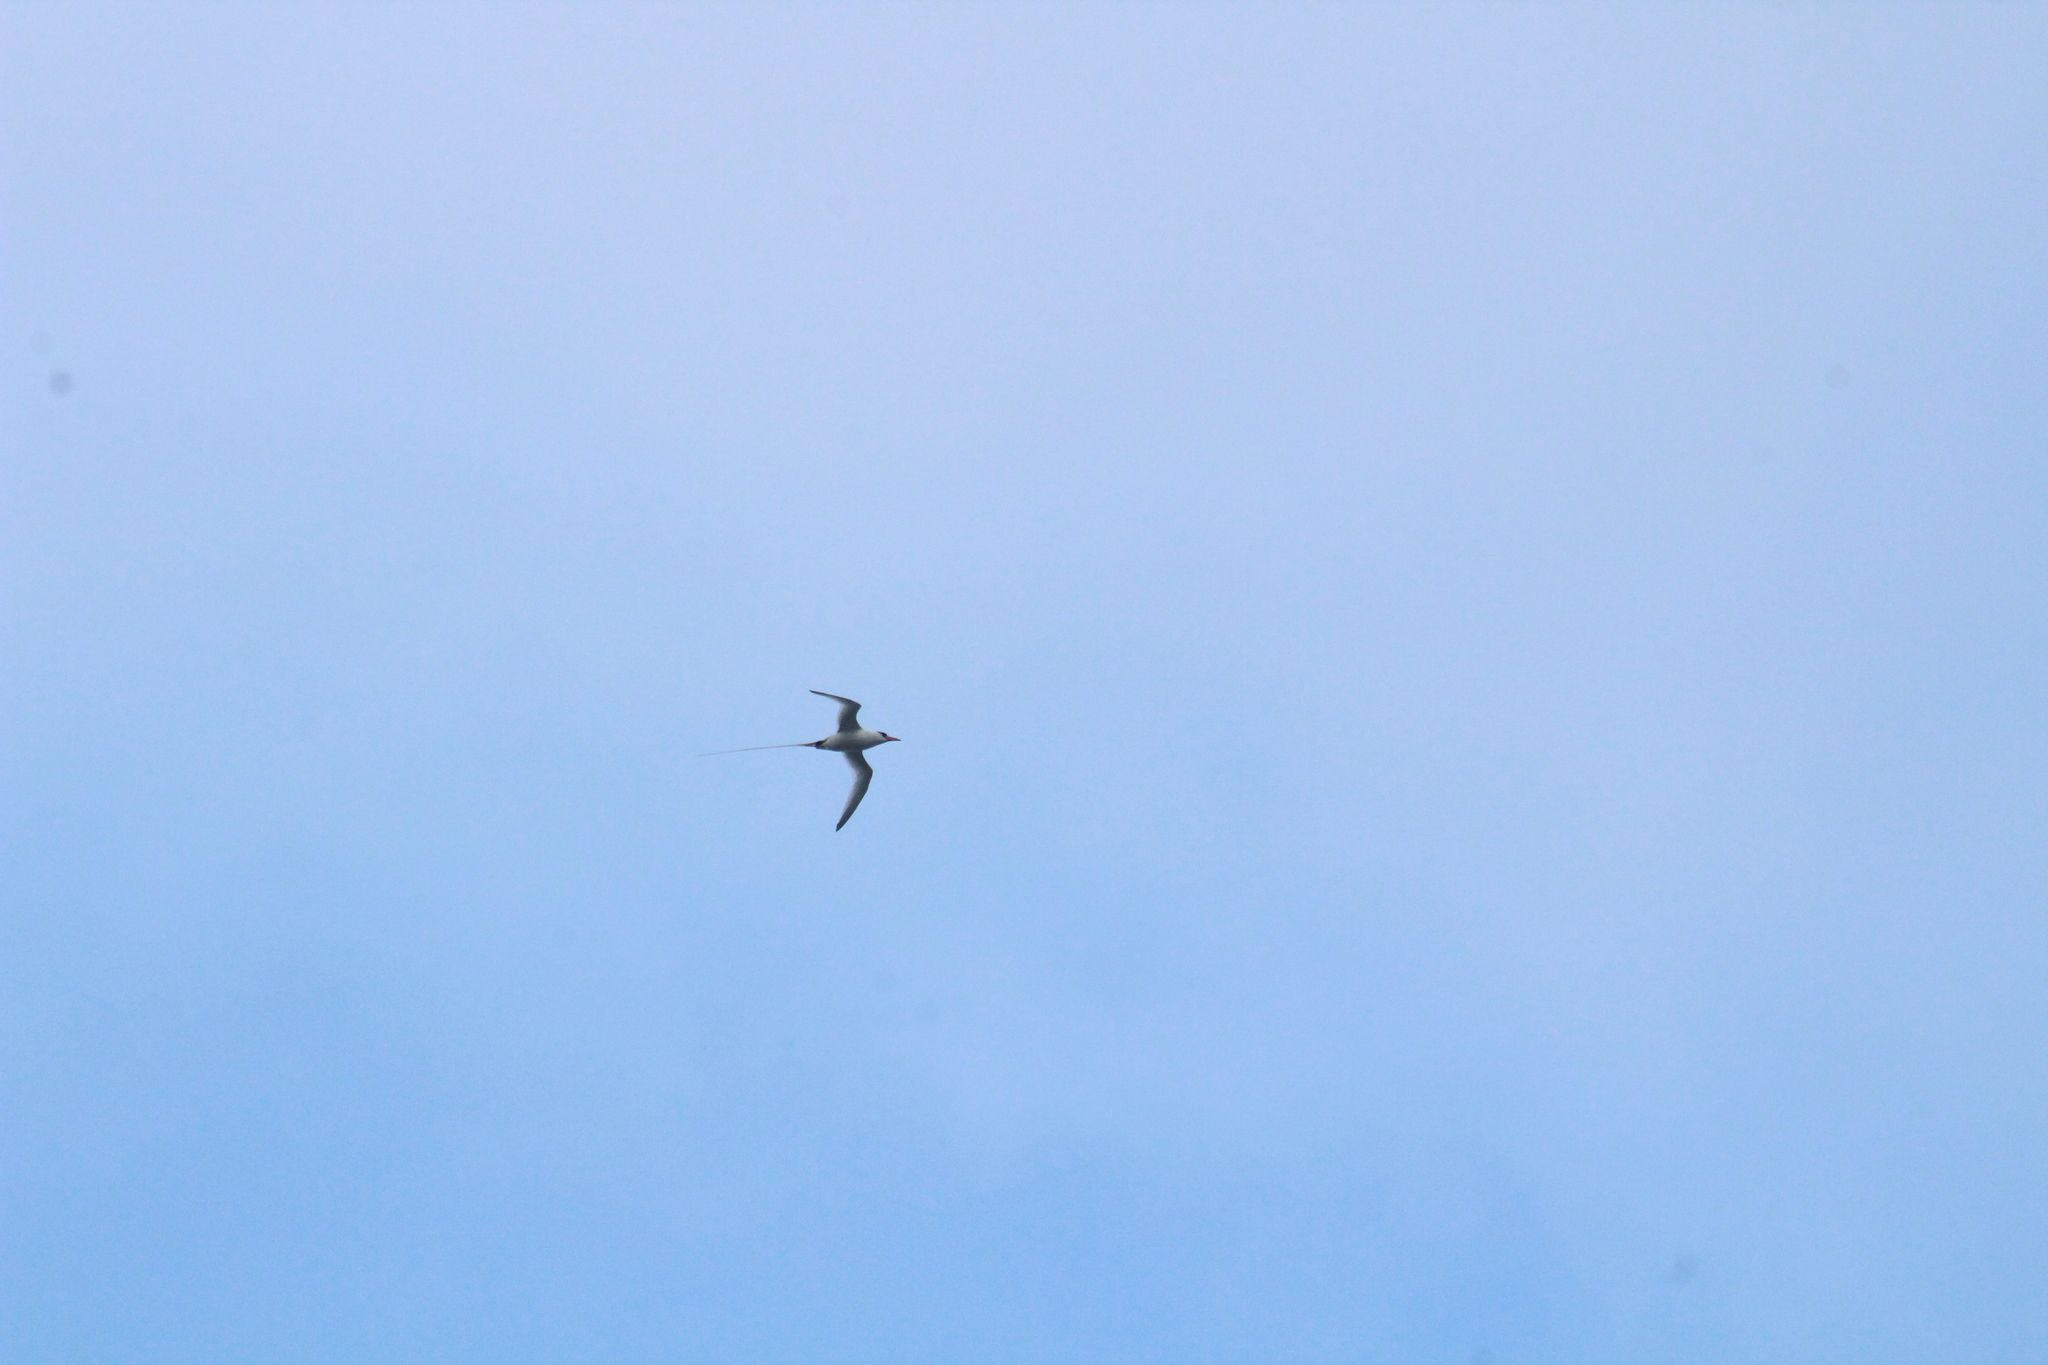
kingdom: Animalia
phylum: Chordata
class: Aves
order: Phaethontiformes
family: Phaethontidae
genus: Phaethon
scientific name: Phaethon aethereus
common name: Red-billed tropicbird
